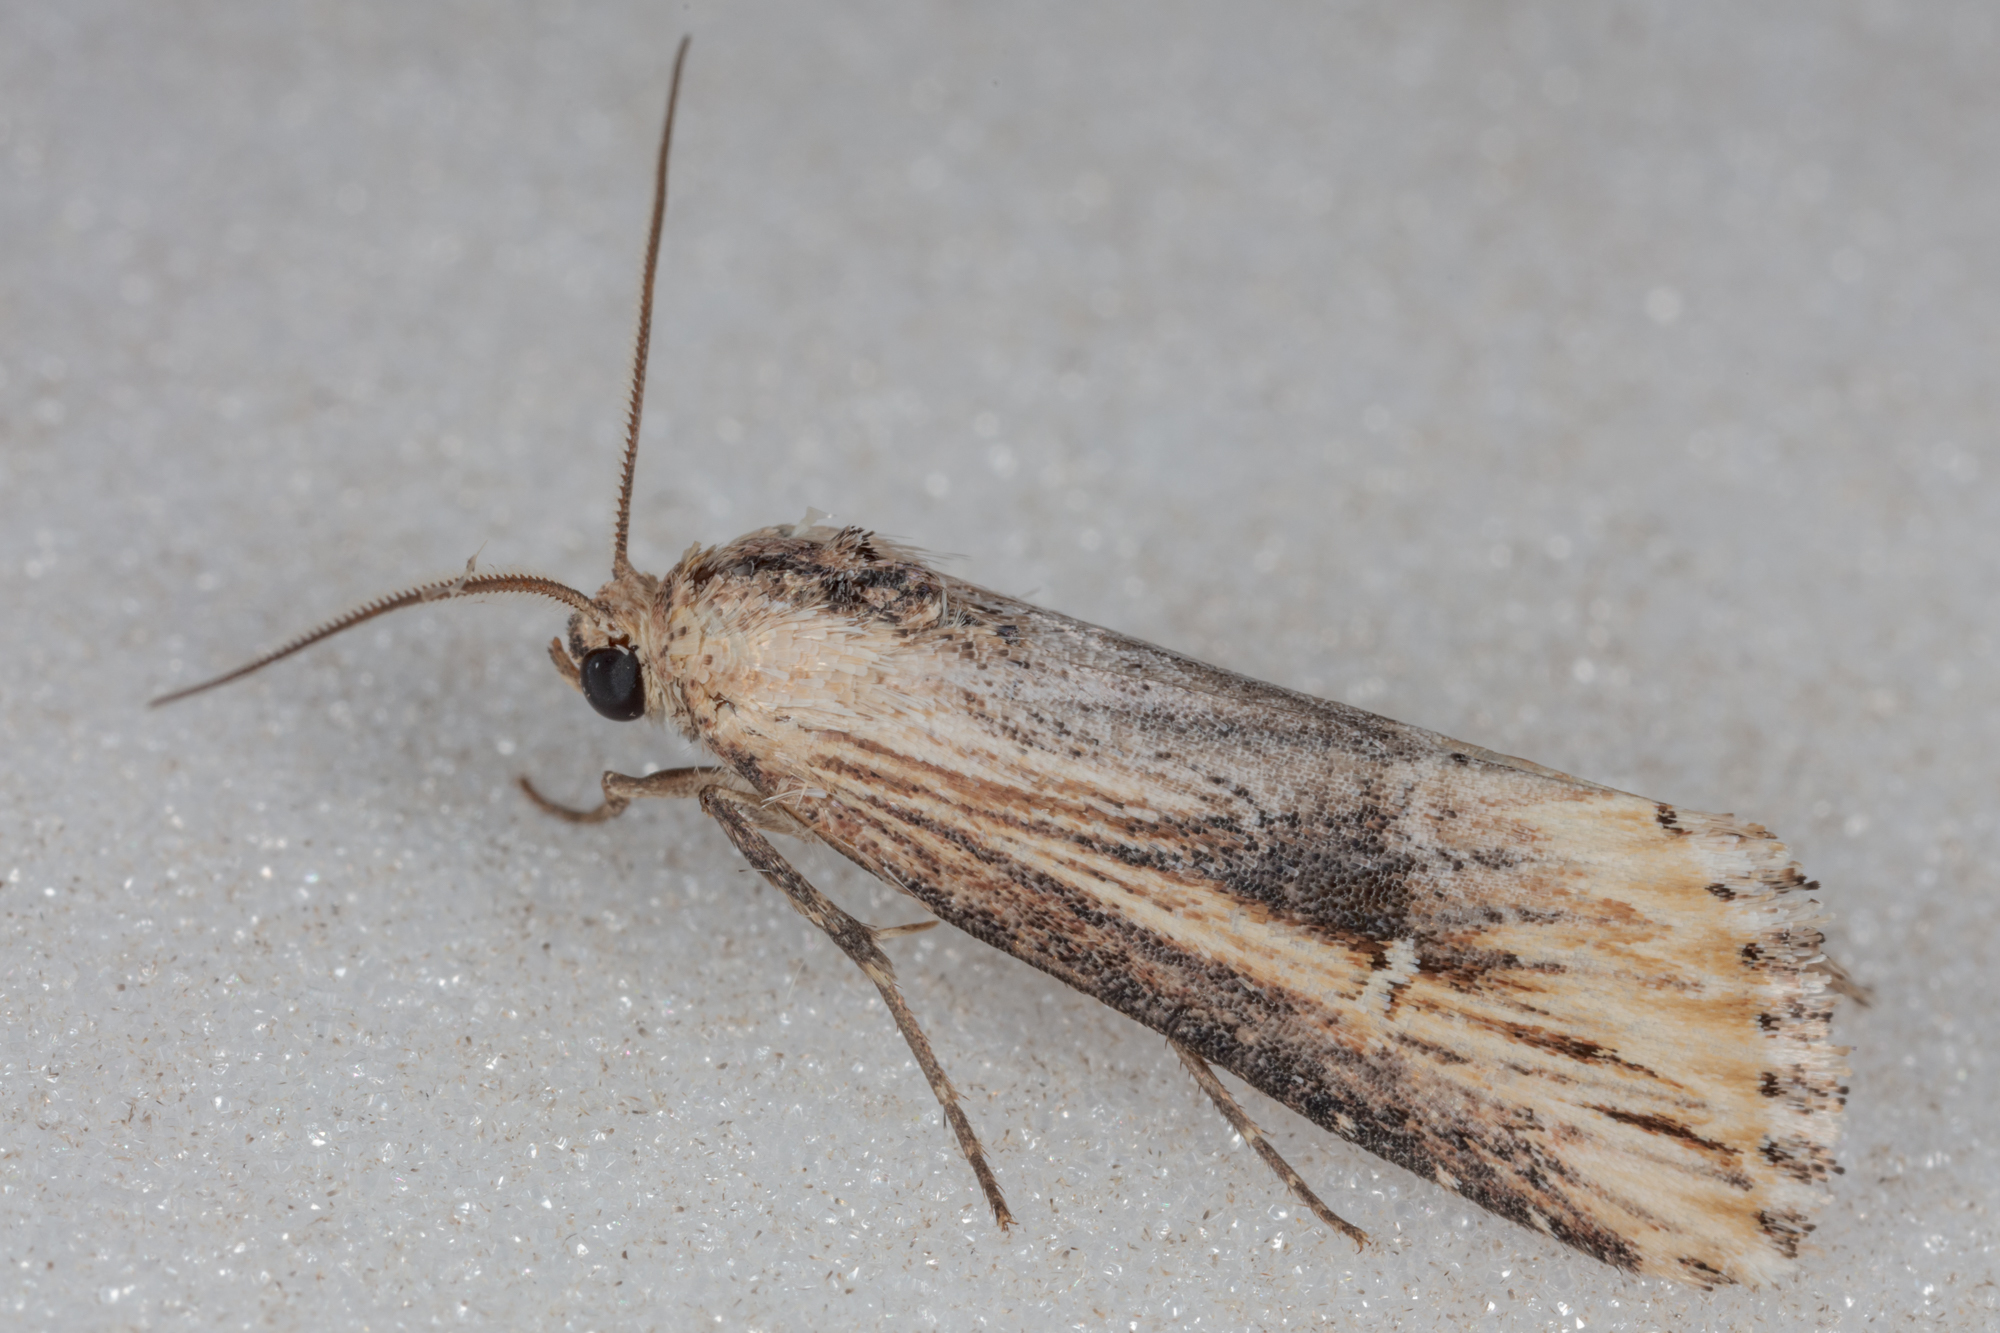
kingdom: Animalia
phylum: Arthropoda
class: Insecta
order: Lepidoptera
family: Noctuidae
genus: Crambodes
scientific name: Crambodes talidiformis
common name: Verbena moth
